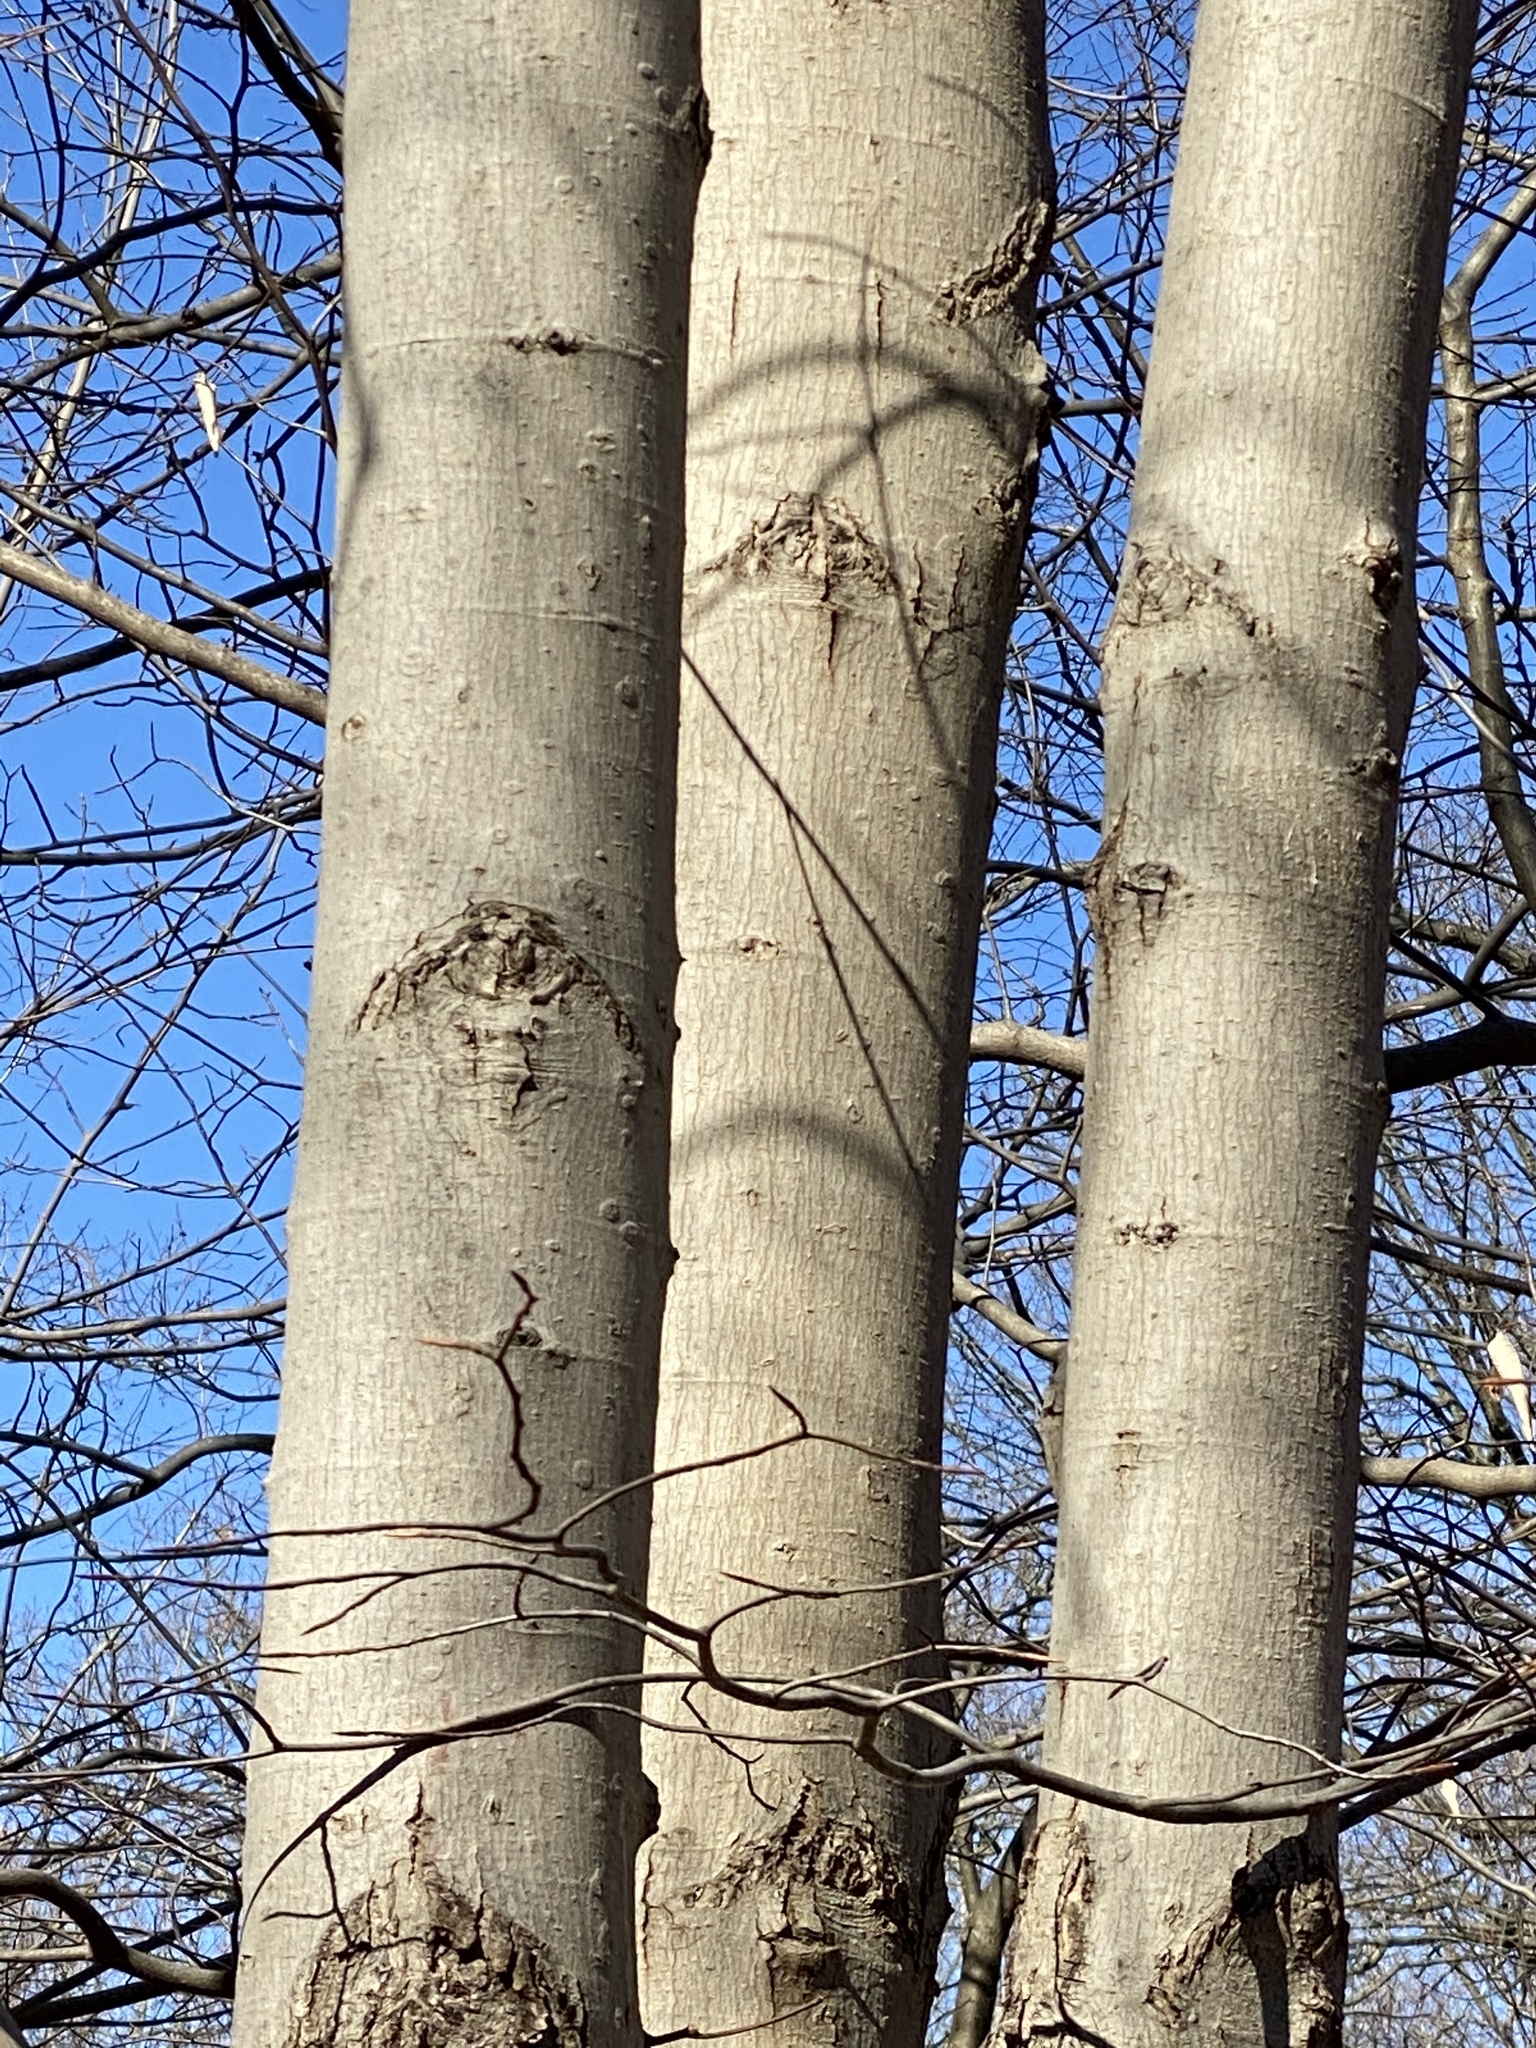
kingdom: Plantae
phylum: Tracheophyta
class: Magnoliopsida
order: Fagales
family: Fagaceae
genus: Fagus
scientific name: Fagus grandifolia
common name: American beech
